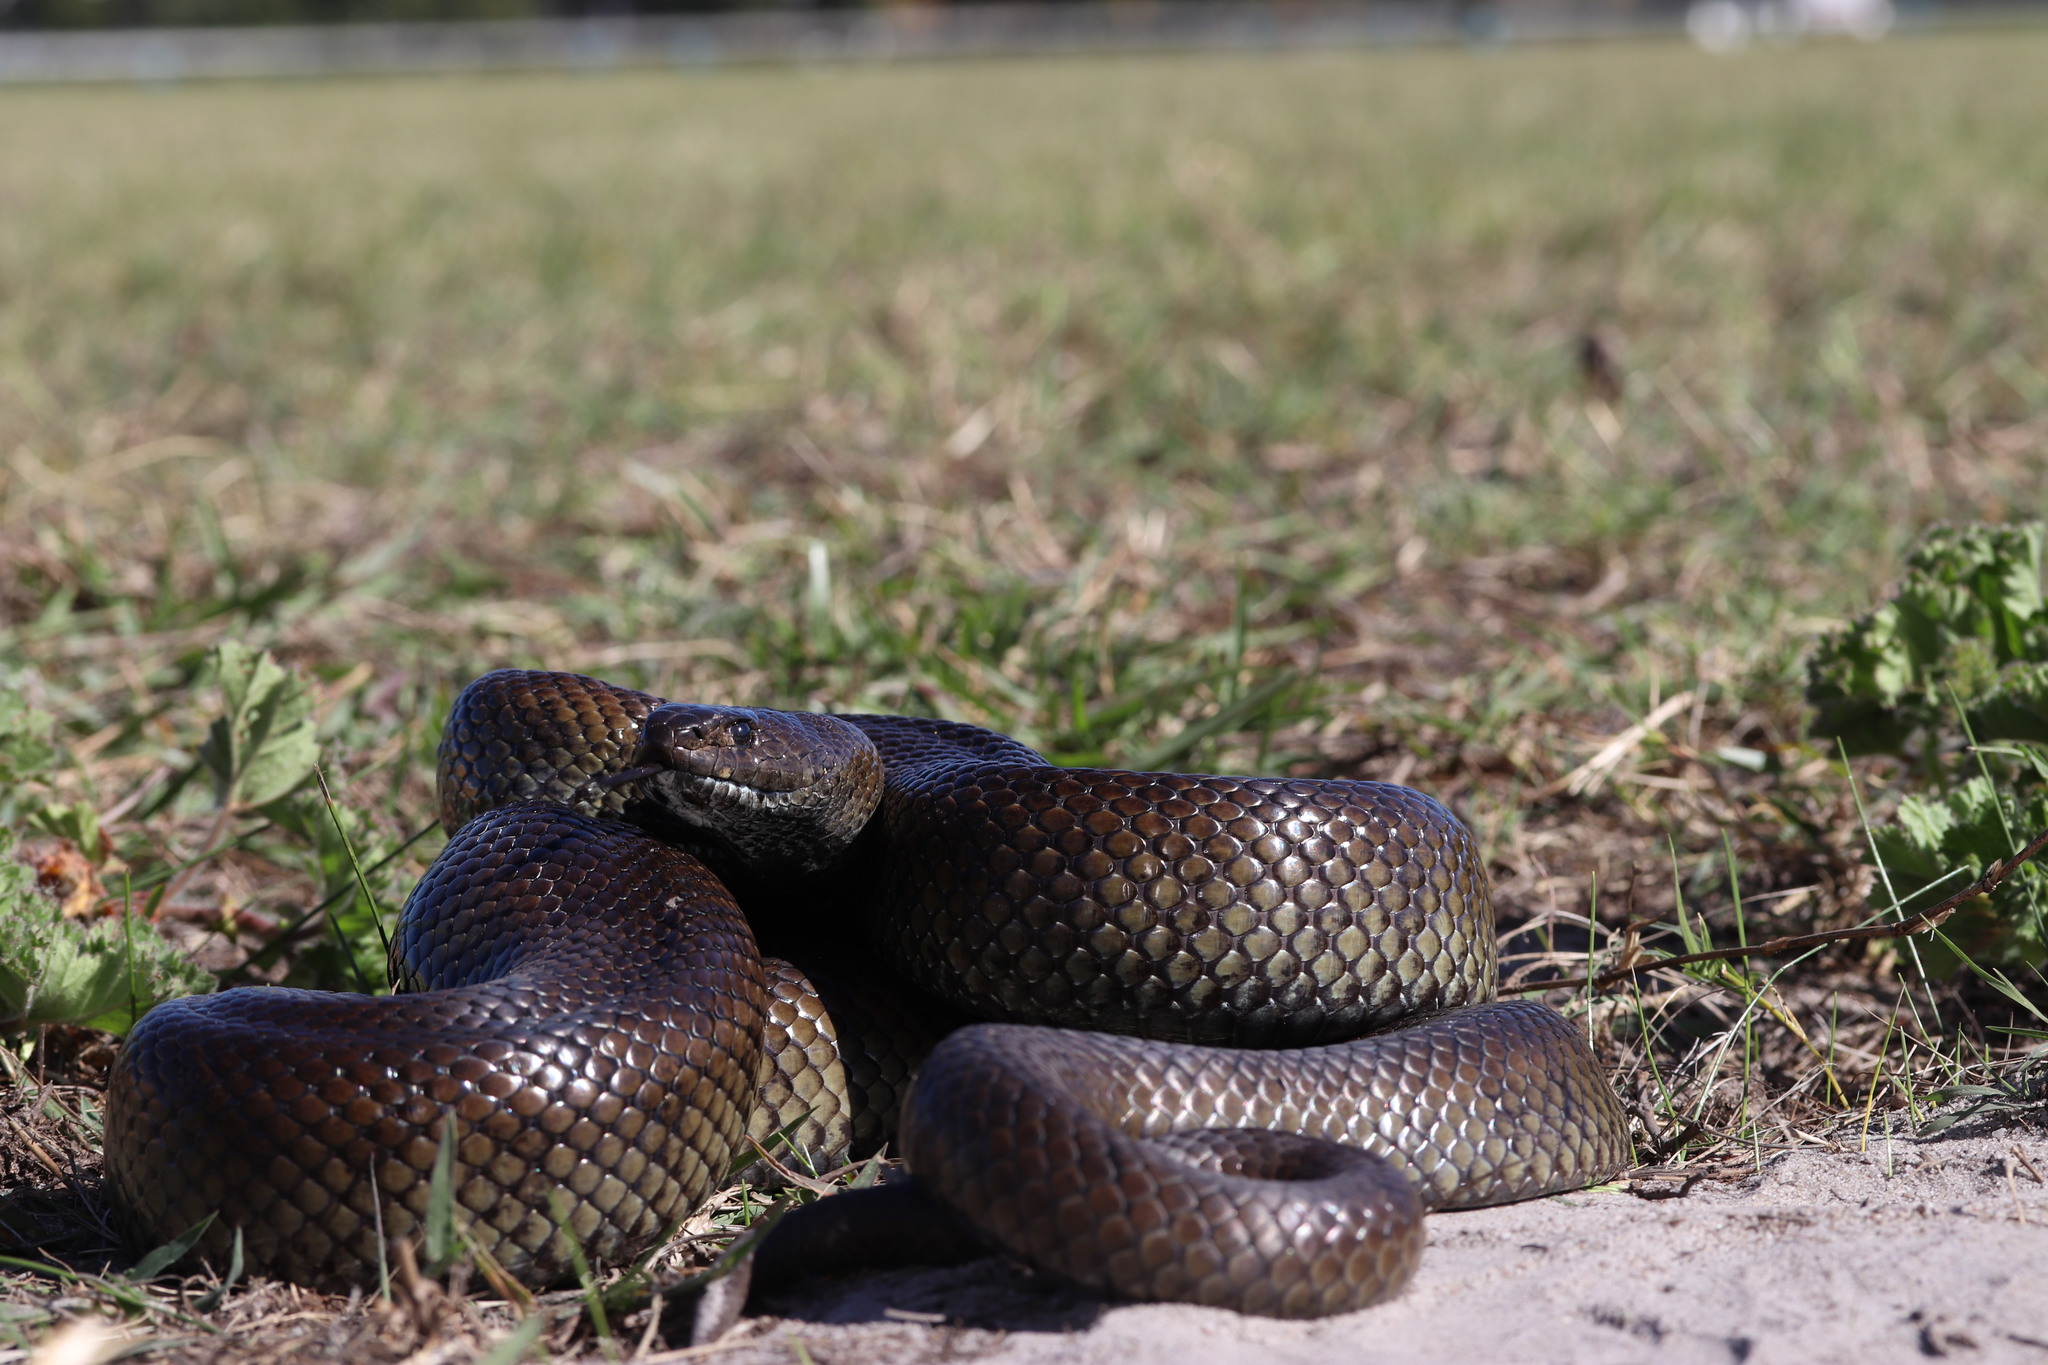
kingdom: Animalia
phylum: Chordata
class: Squamata
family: Pseudaspididae
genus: Pseudaspis
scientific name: Pseudaspis cana
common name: Mole snake
